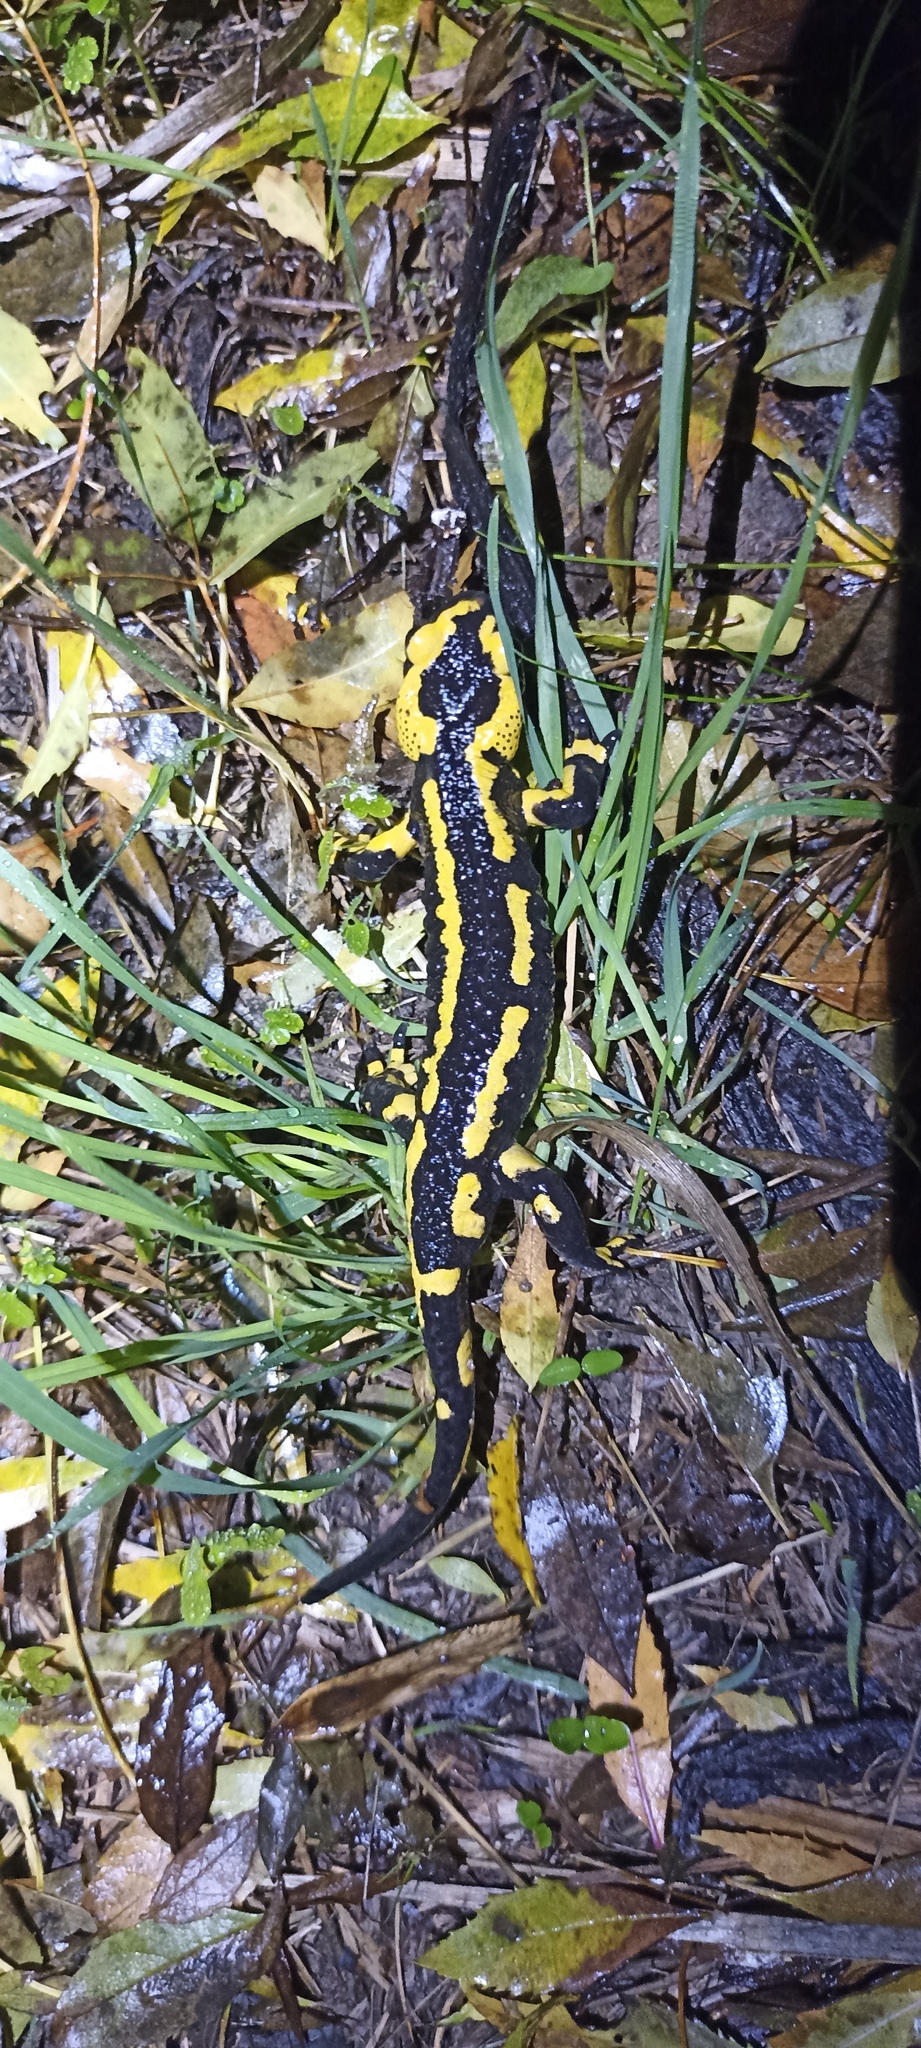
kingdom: Animalia
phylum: Chordata
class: Amphibia
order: Caudata
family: Salamandridae
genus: Salamandra
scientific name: Salamandra salamandra
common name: Fire salamander
